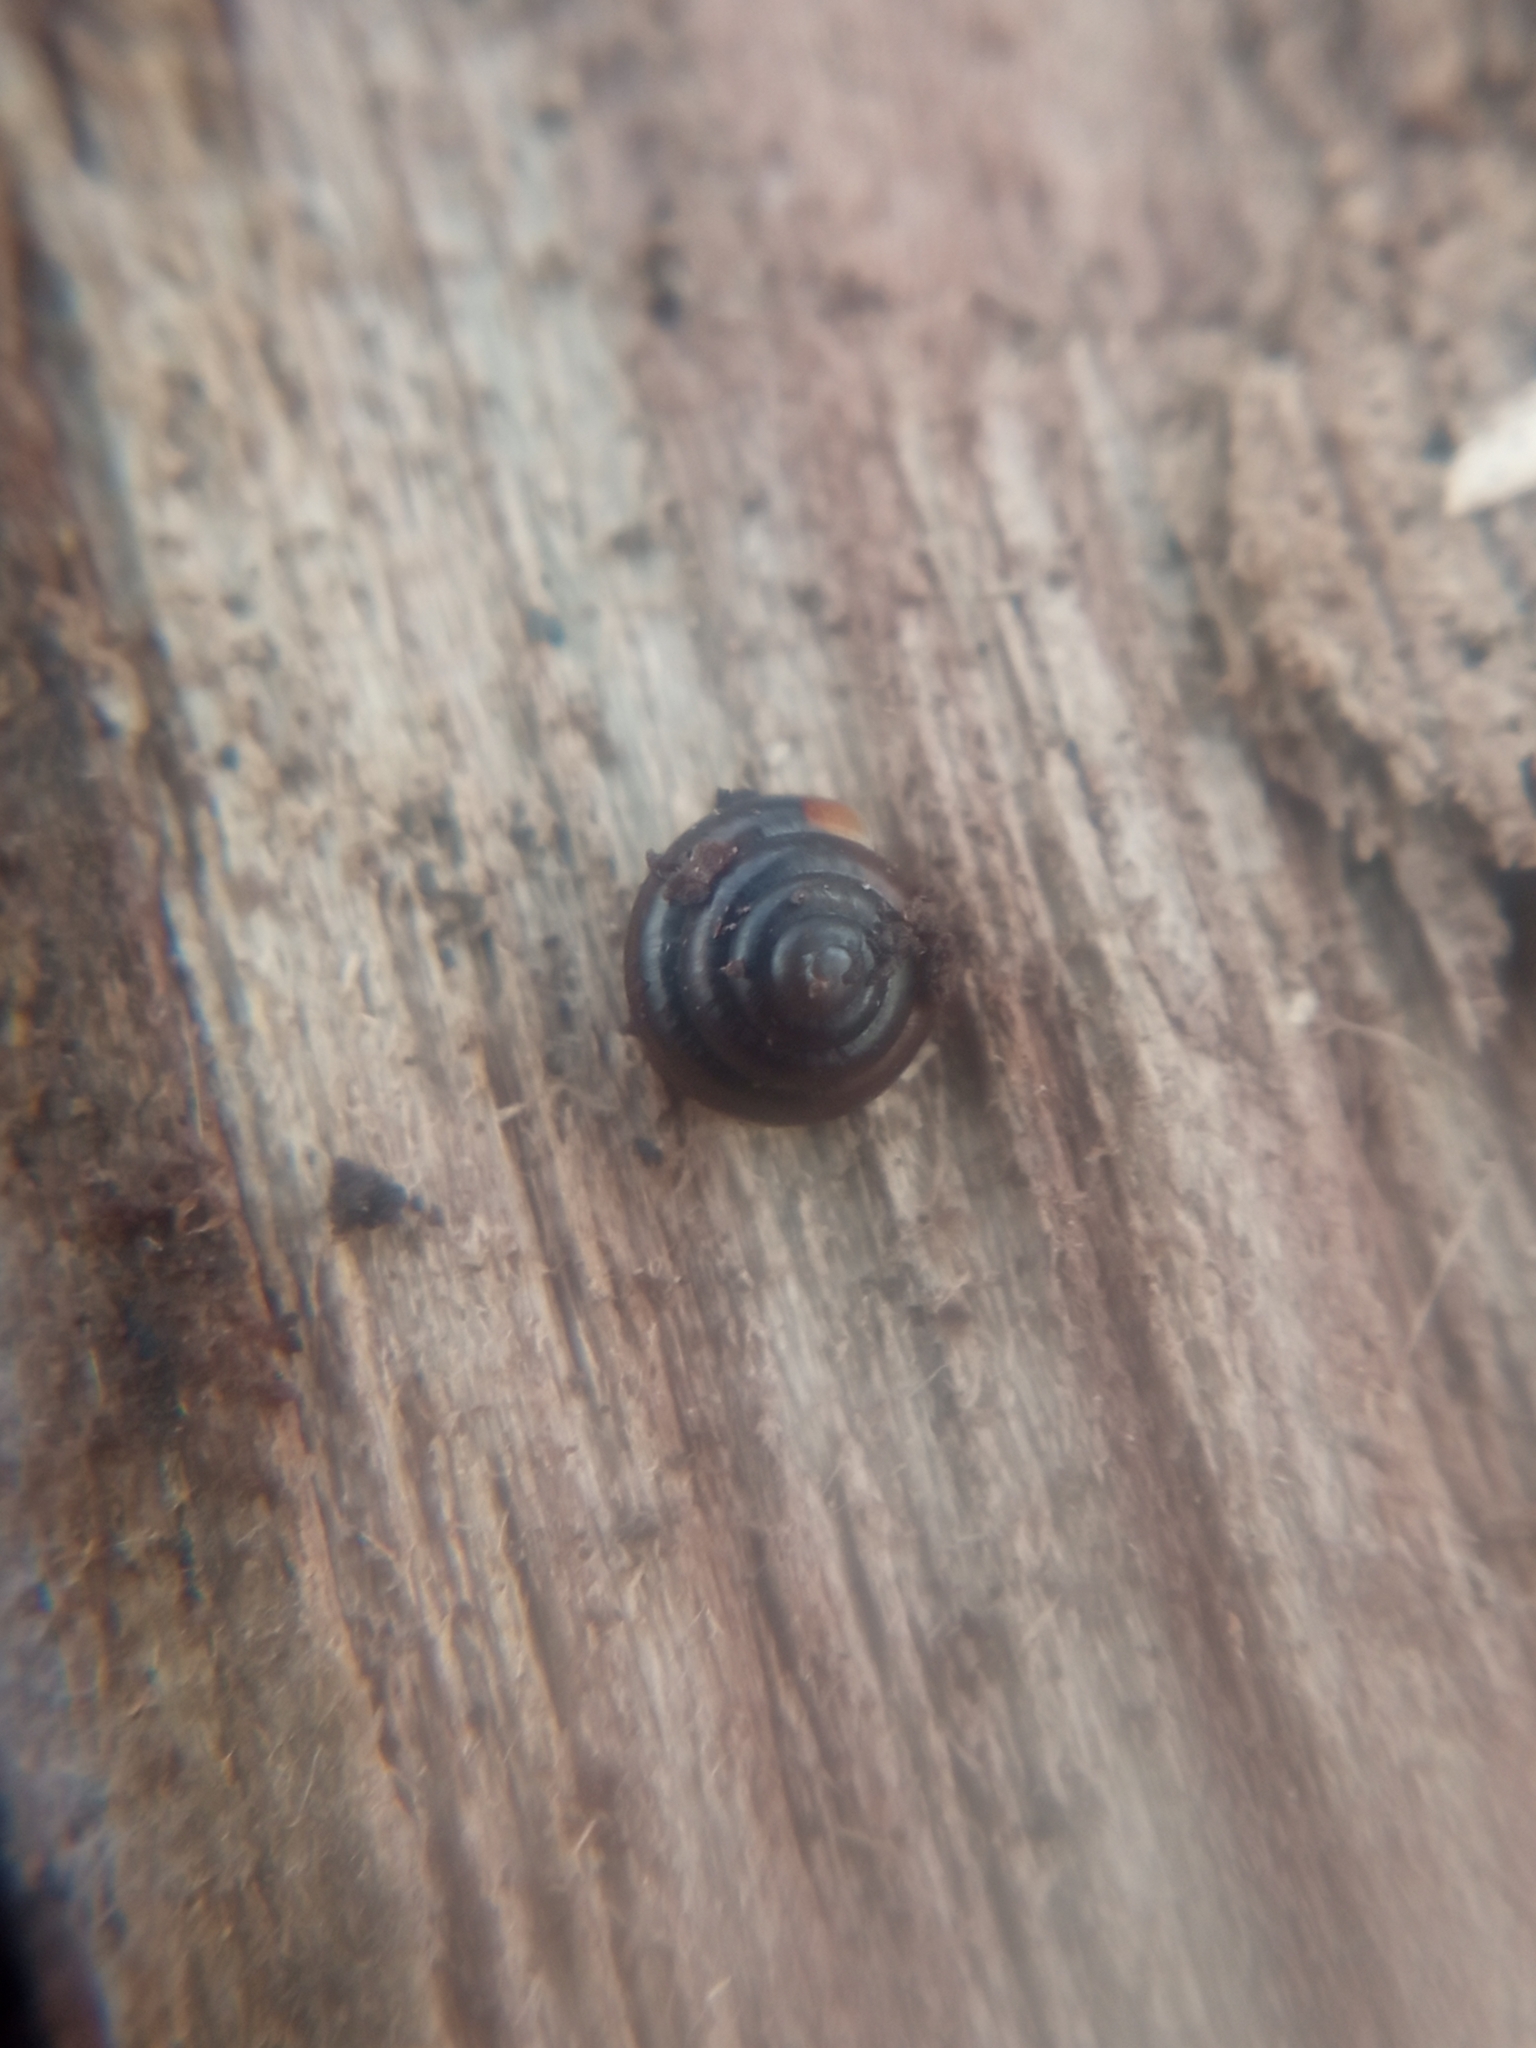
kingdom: Animalia
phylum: Mollusca
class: Gastropoda
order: Stylommatophora
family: Euconulidae
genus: Euconulus
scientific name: Euconulus alderi
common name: Shiny hive
